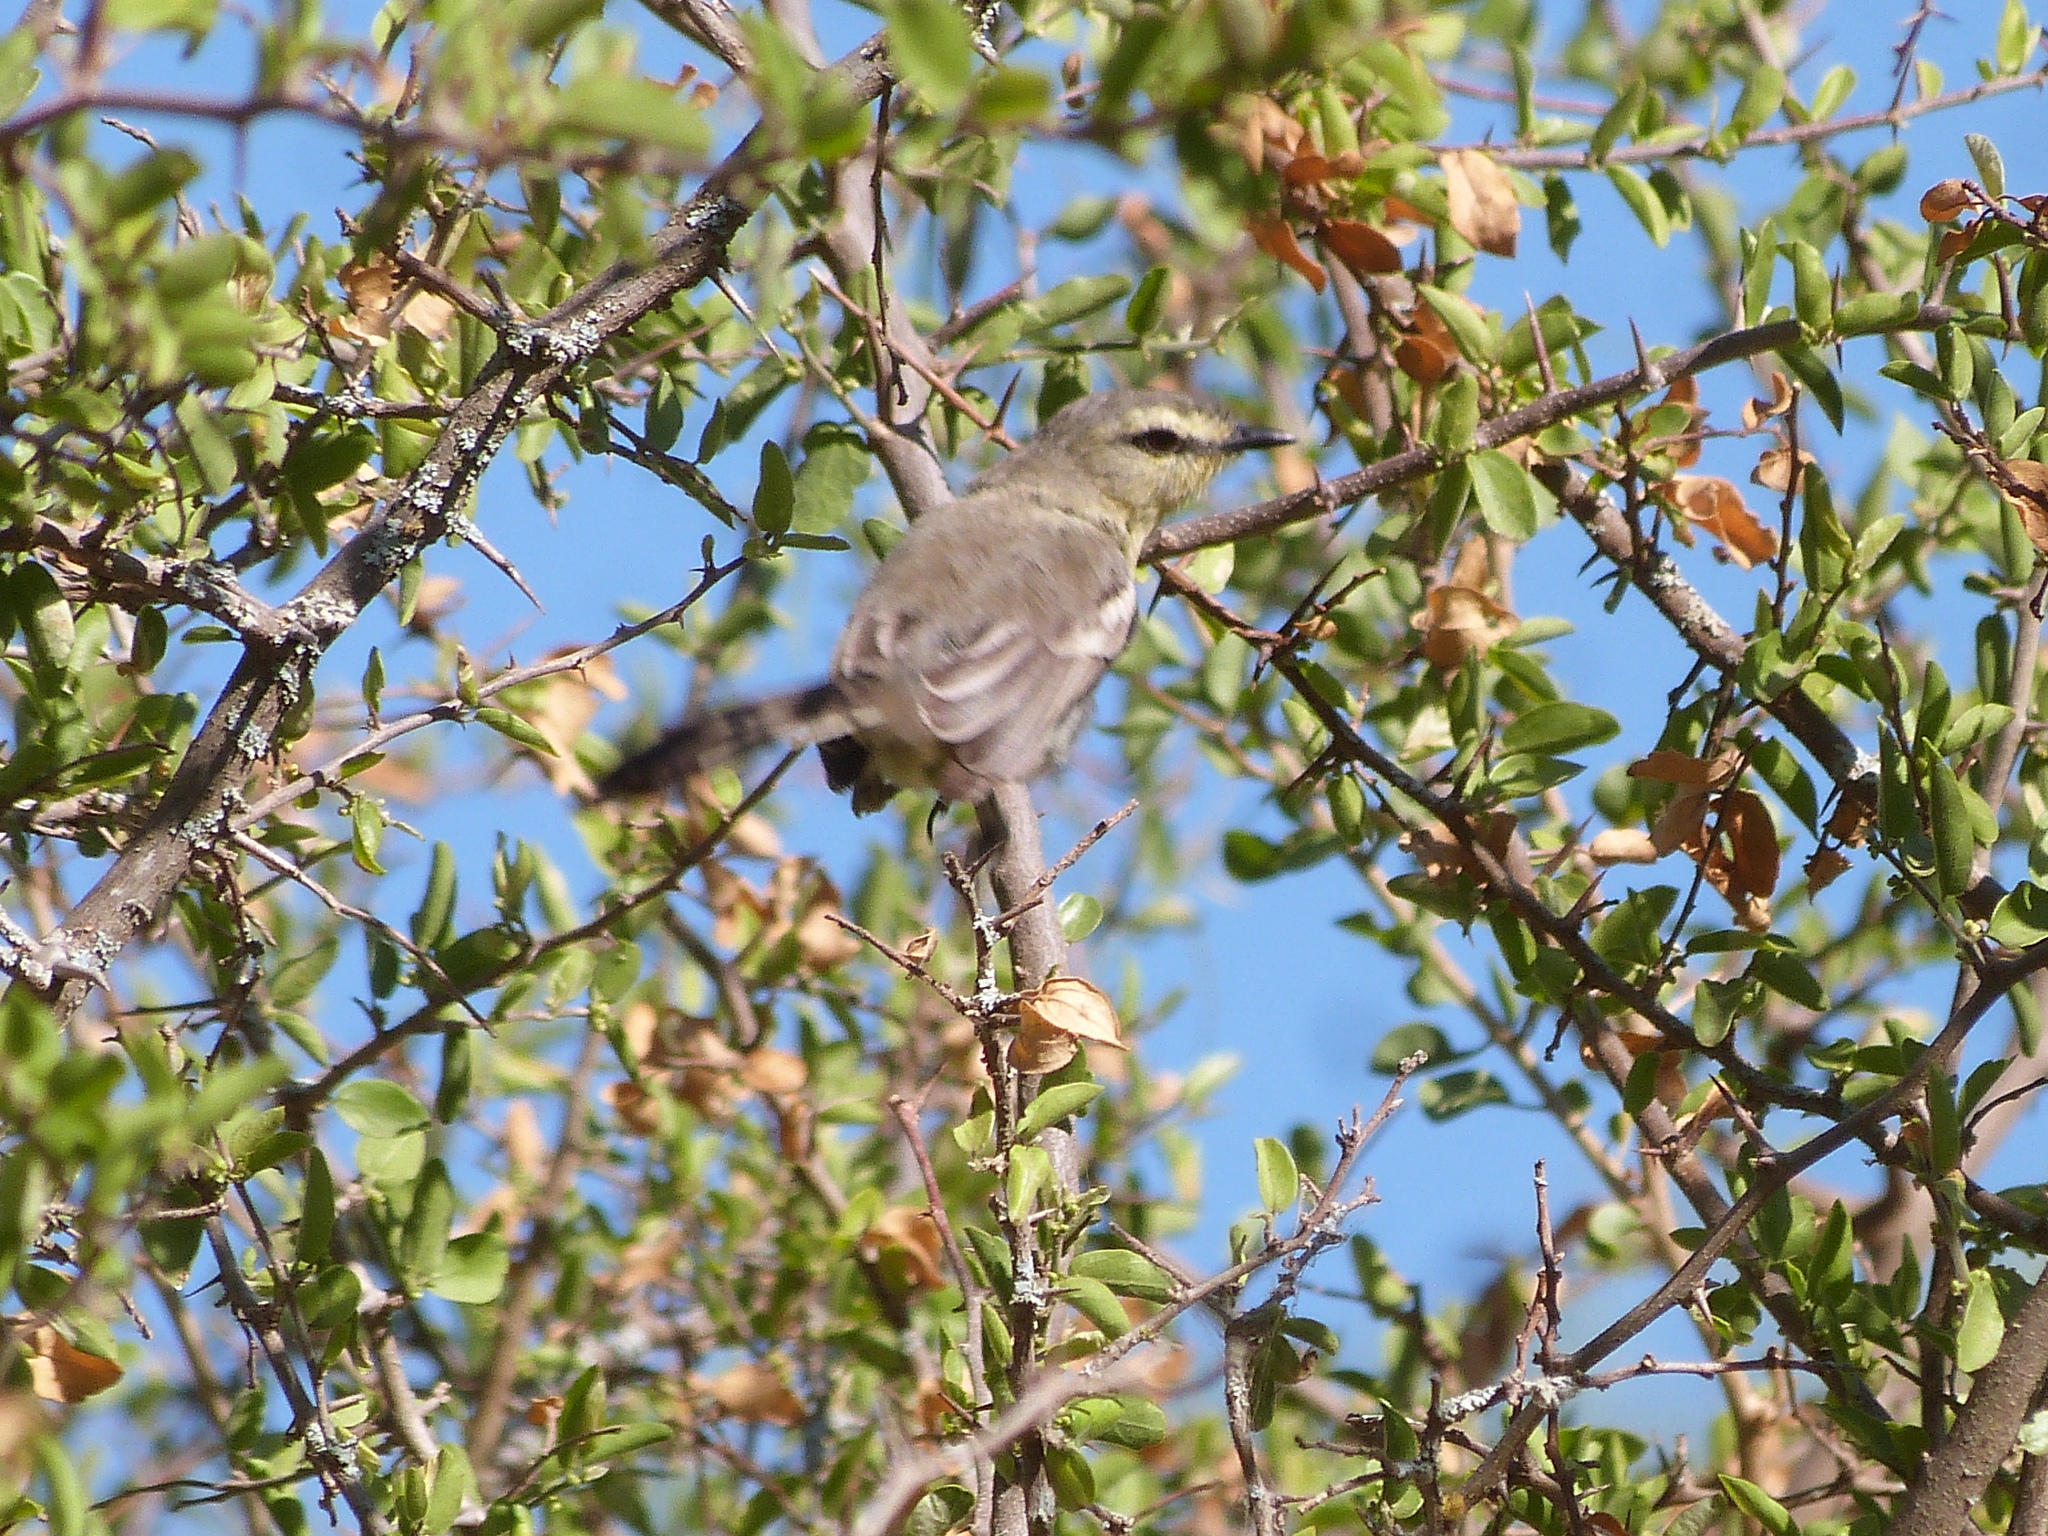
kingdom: Animalia
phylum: Chordata
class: Aves
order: Passeriformes
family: Tyrannidae
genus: Stigmatura
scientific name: Stigmatura budytoides
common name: Greater wagtail-tyrant
